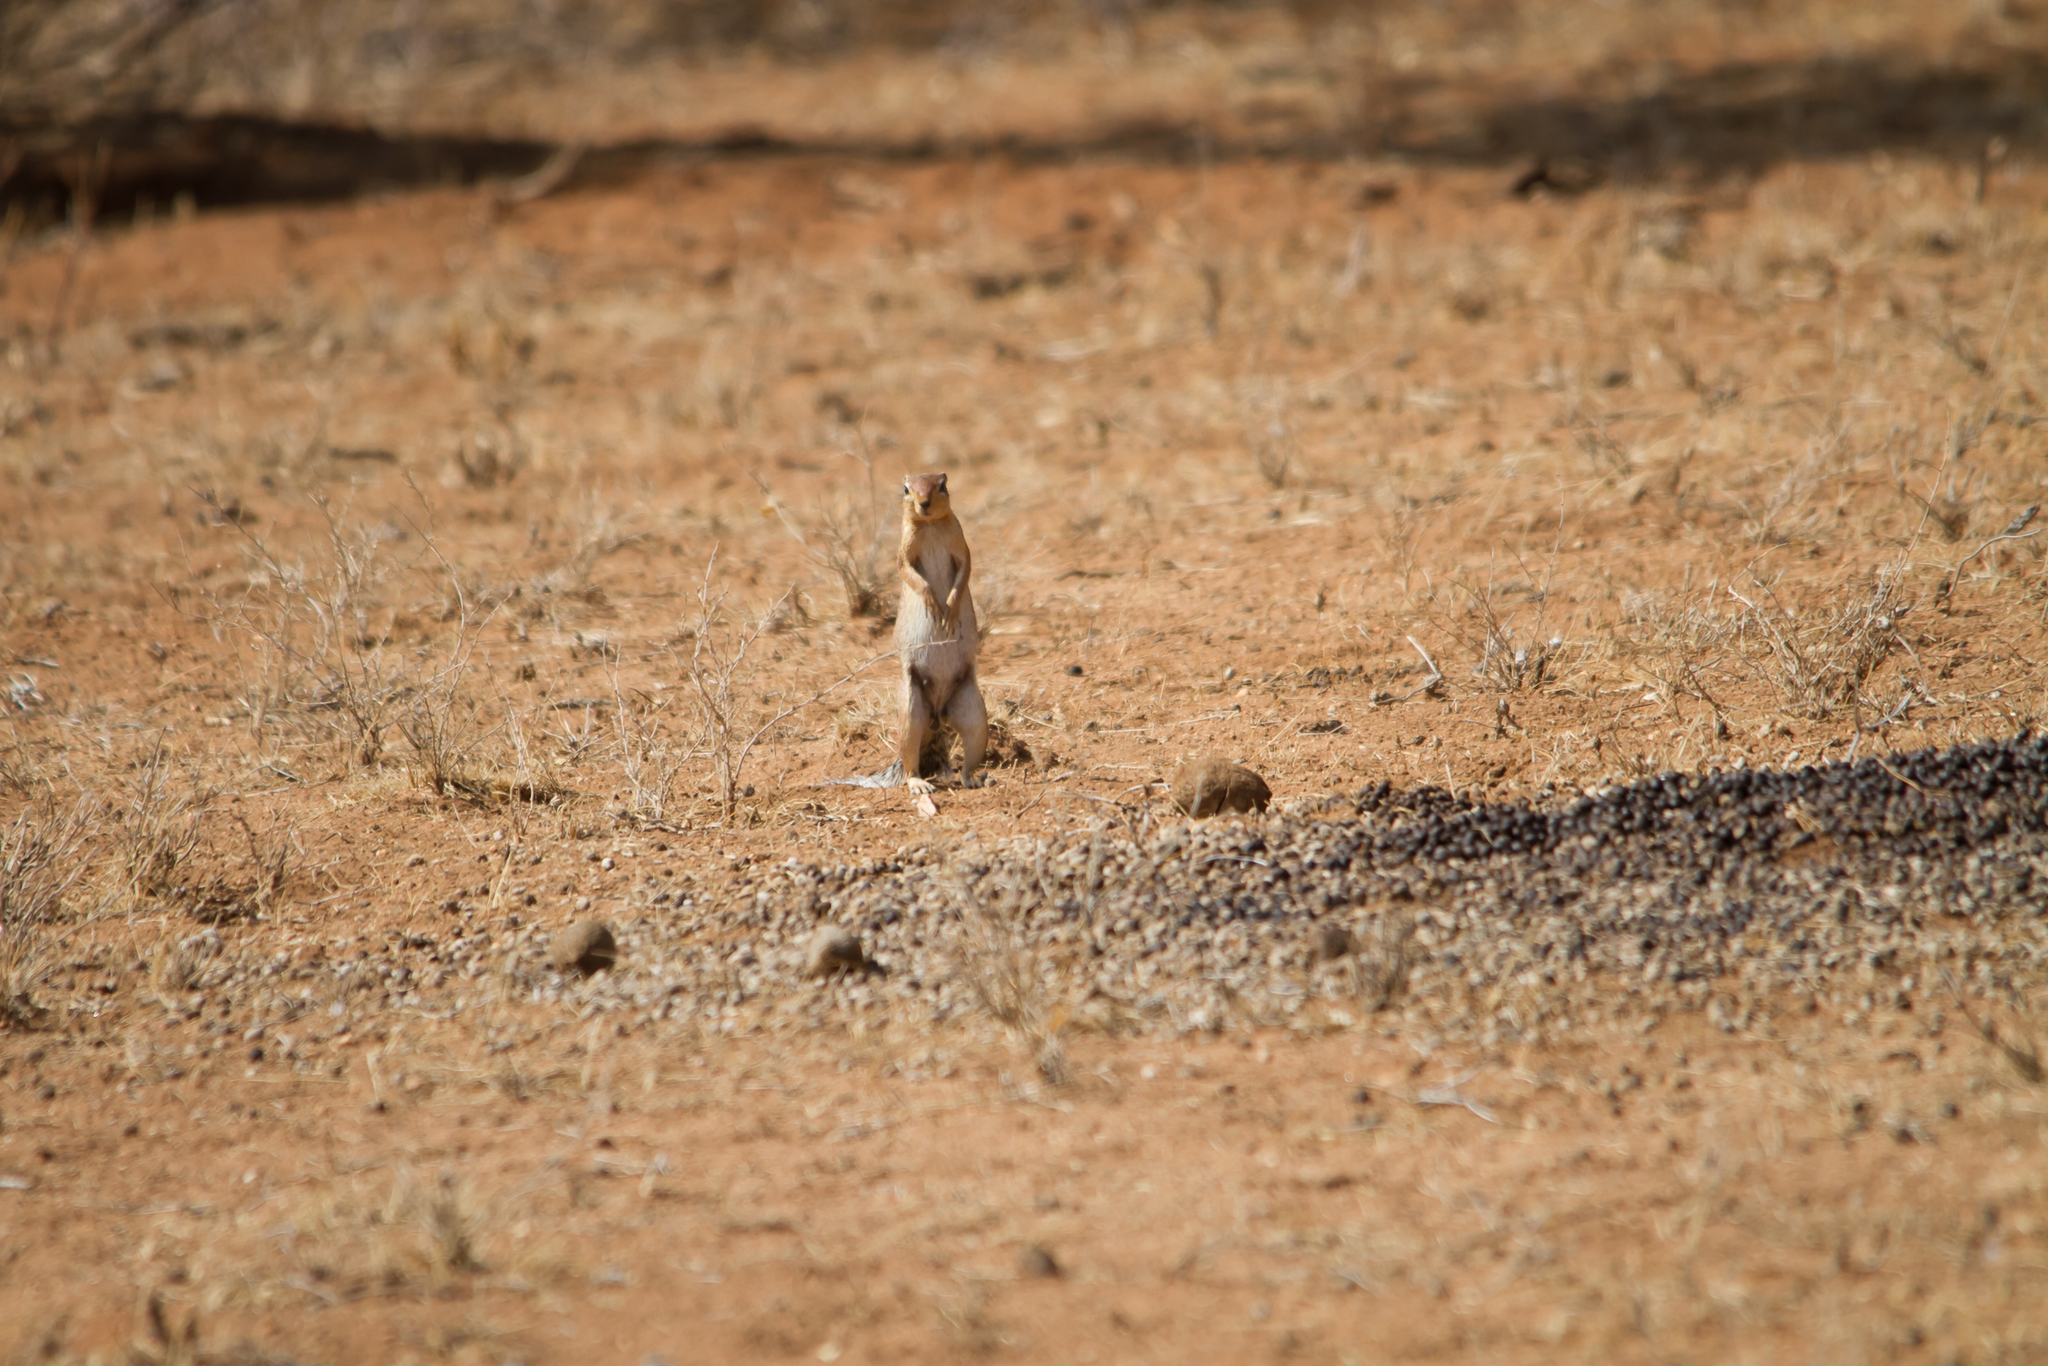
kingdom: Animalia
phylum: Chordata
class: Mammalia
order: Rodentia
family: Sciuridae
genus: Xerus
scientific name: Xerus rutilus
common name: Unstriped ground squirrel
